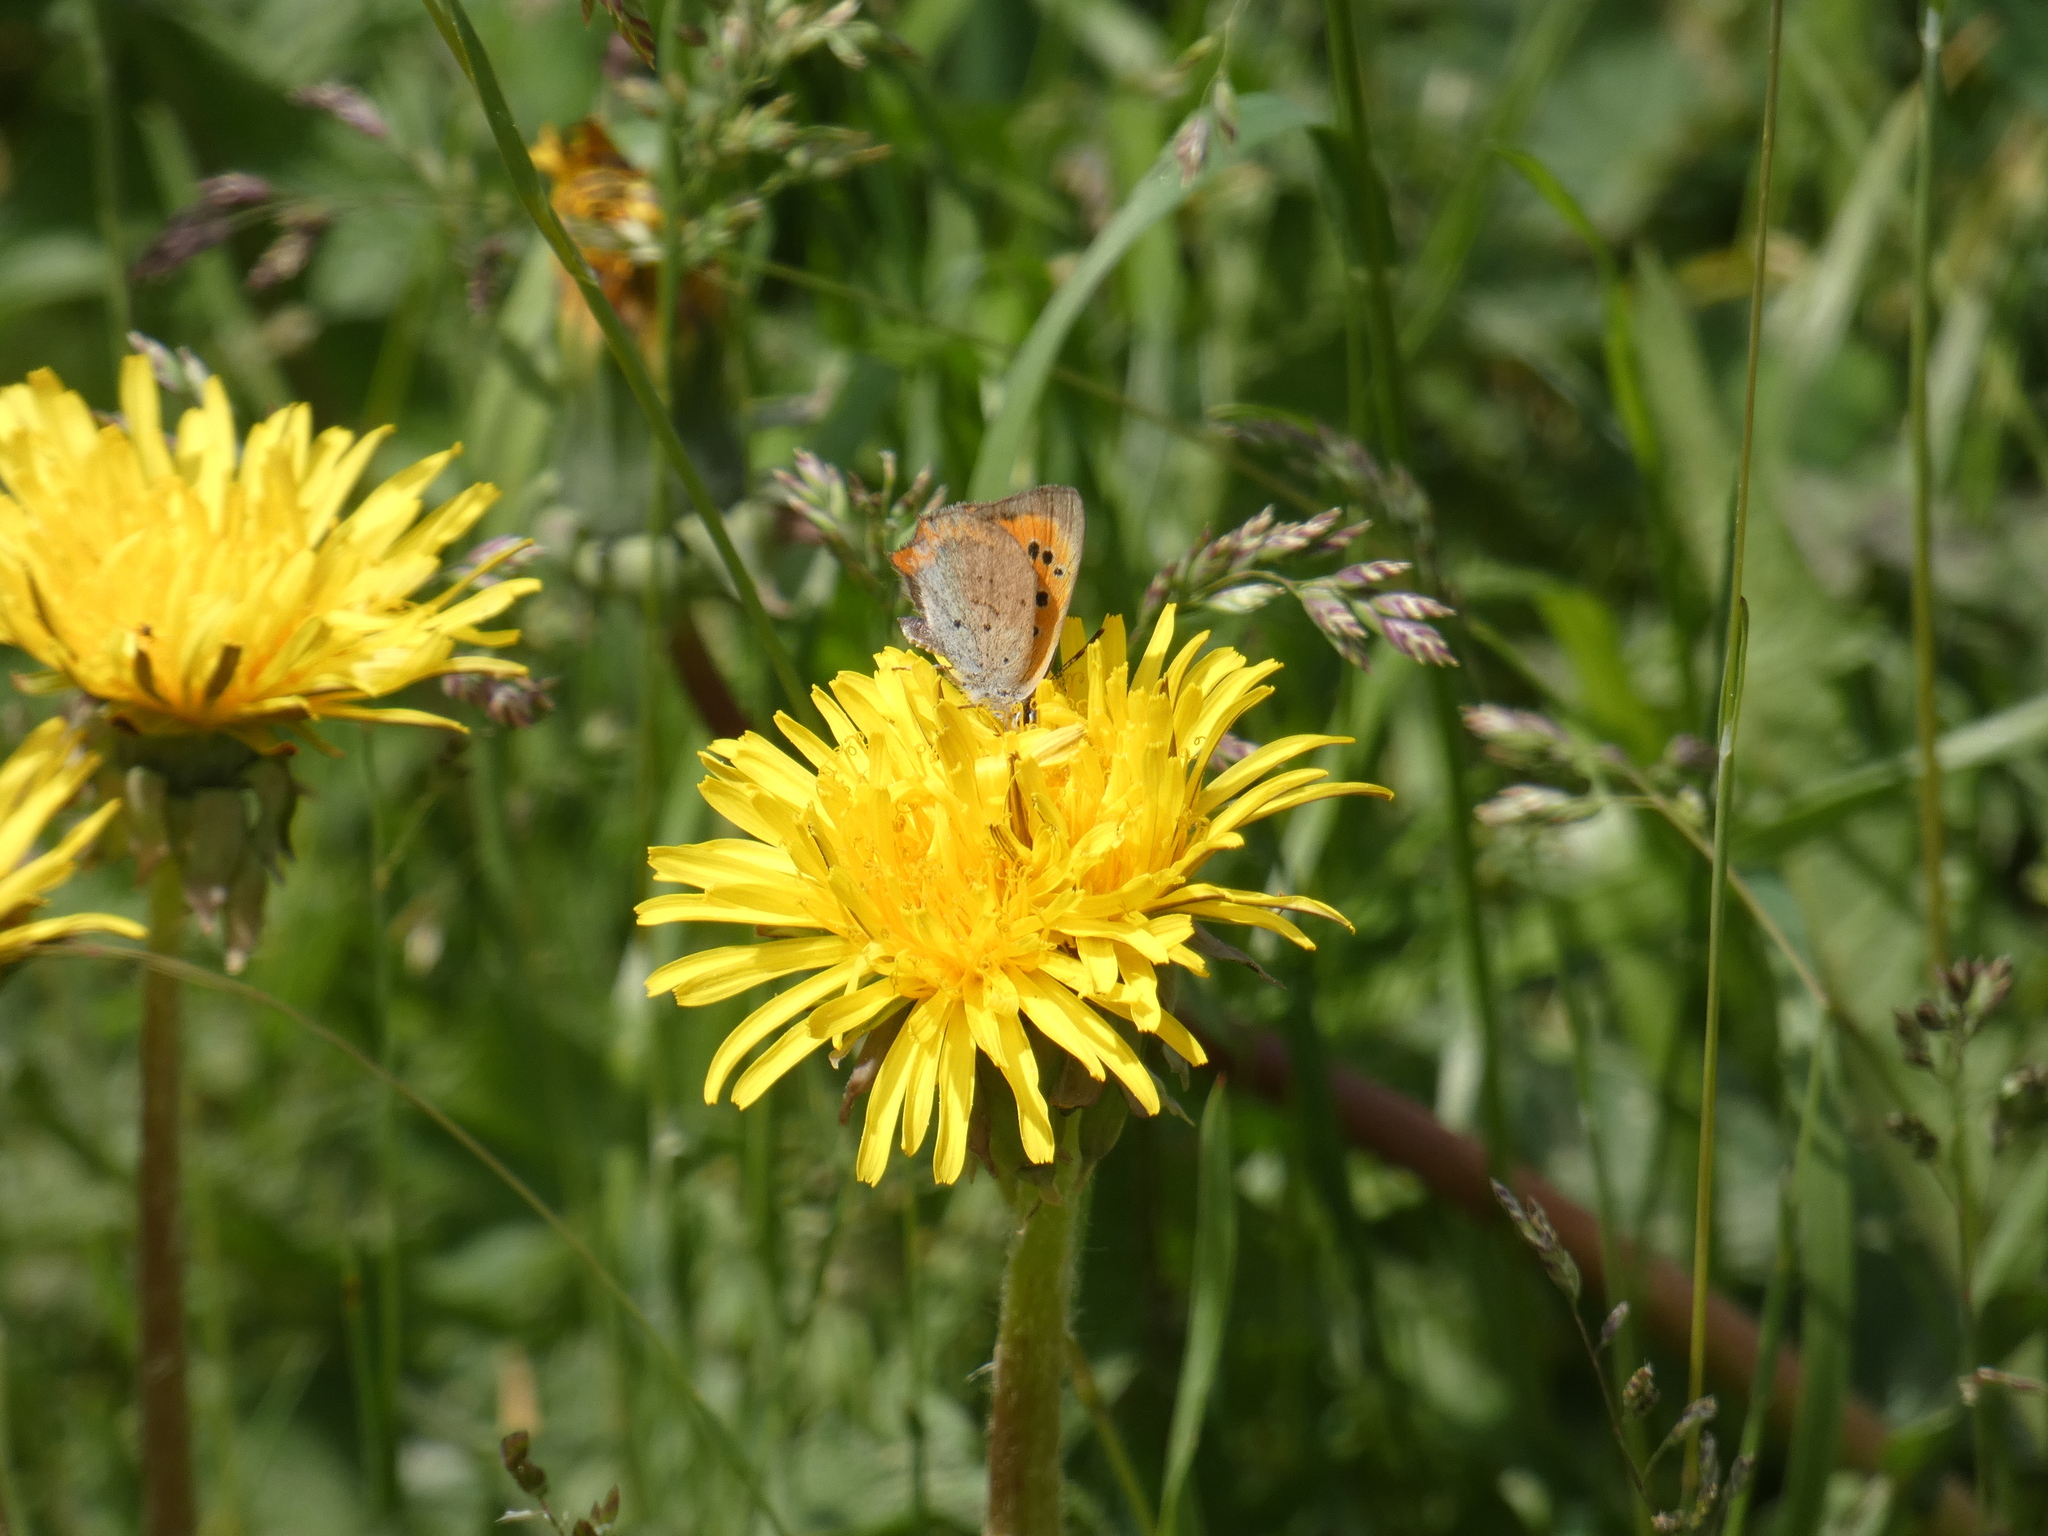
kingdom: Animalia
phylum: Arthropoda
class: Insecta
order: Lepidoptera
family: Lycaenidae
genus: Lycaena
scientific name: Lycaena phlaeas
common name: Small copper
